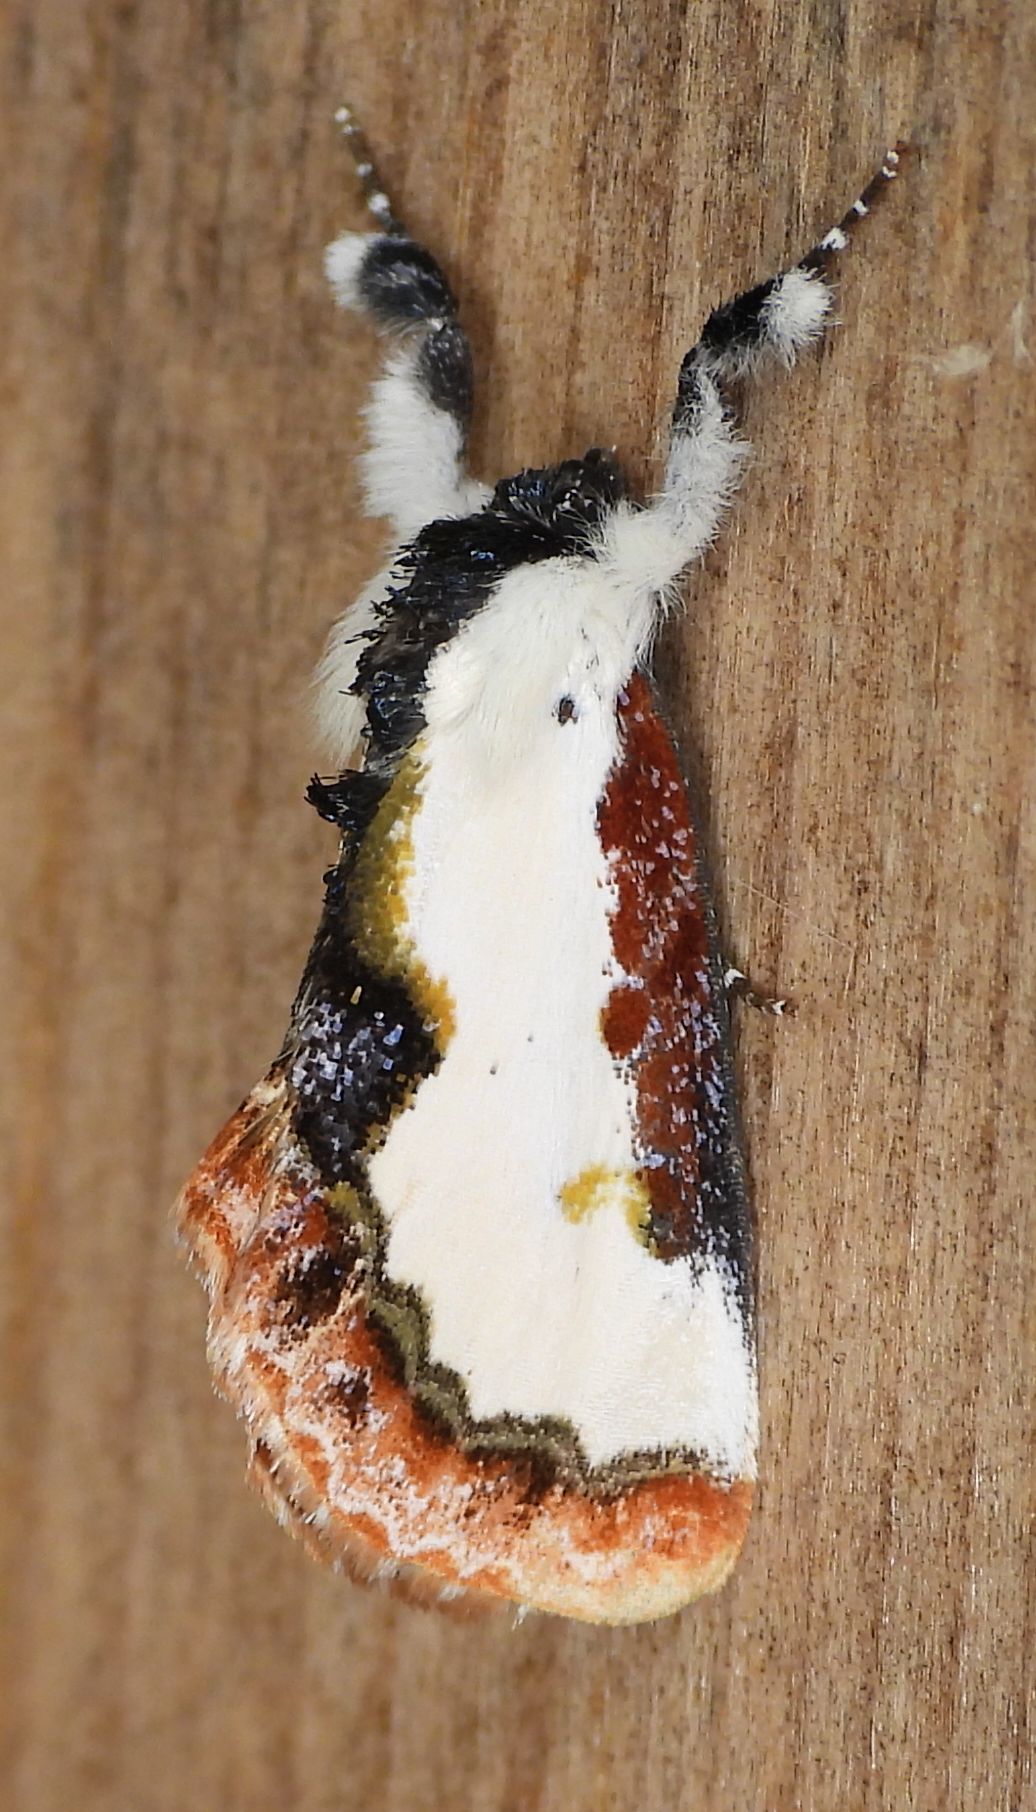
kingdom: Animalia
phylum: Arthropoda
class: Insecta
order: Lepidoptera
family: Noctuidae
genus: Eudryas
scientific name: Eudryas unio
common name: Pearly wood-nymph
